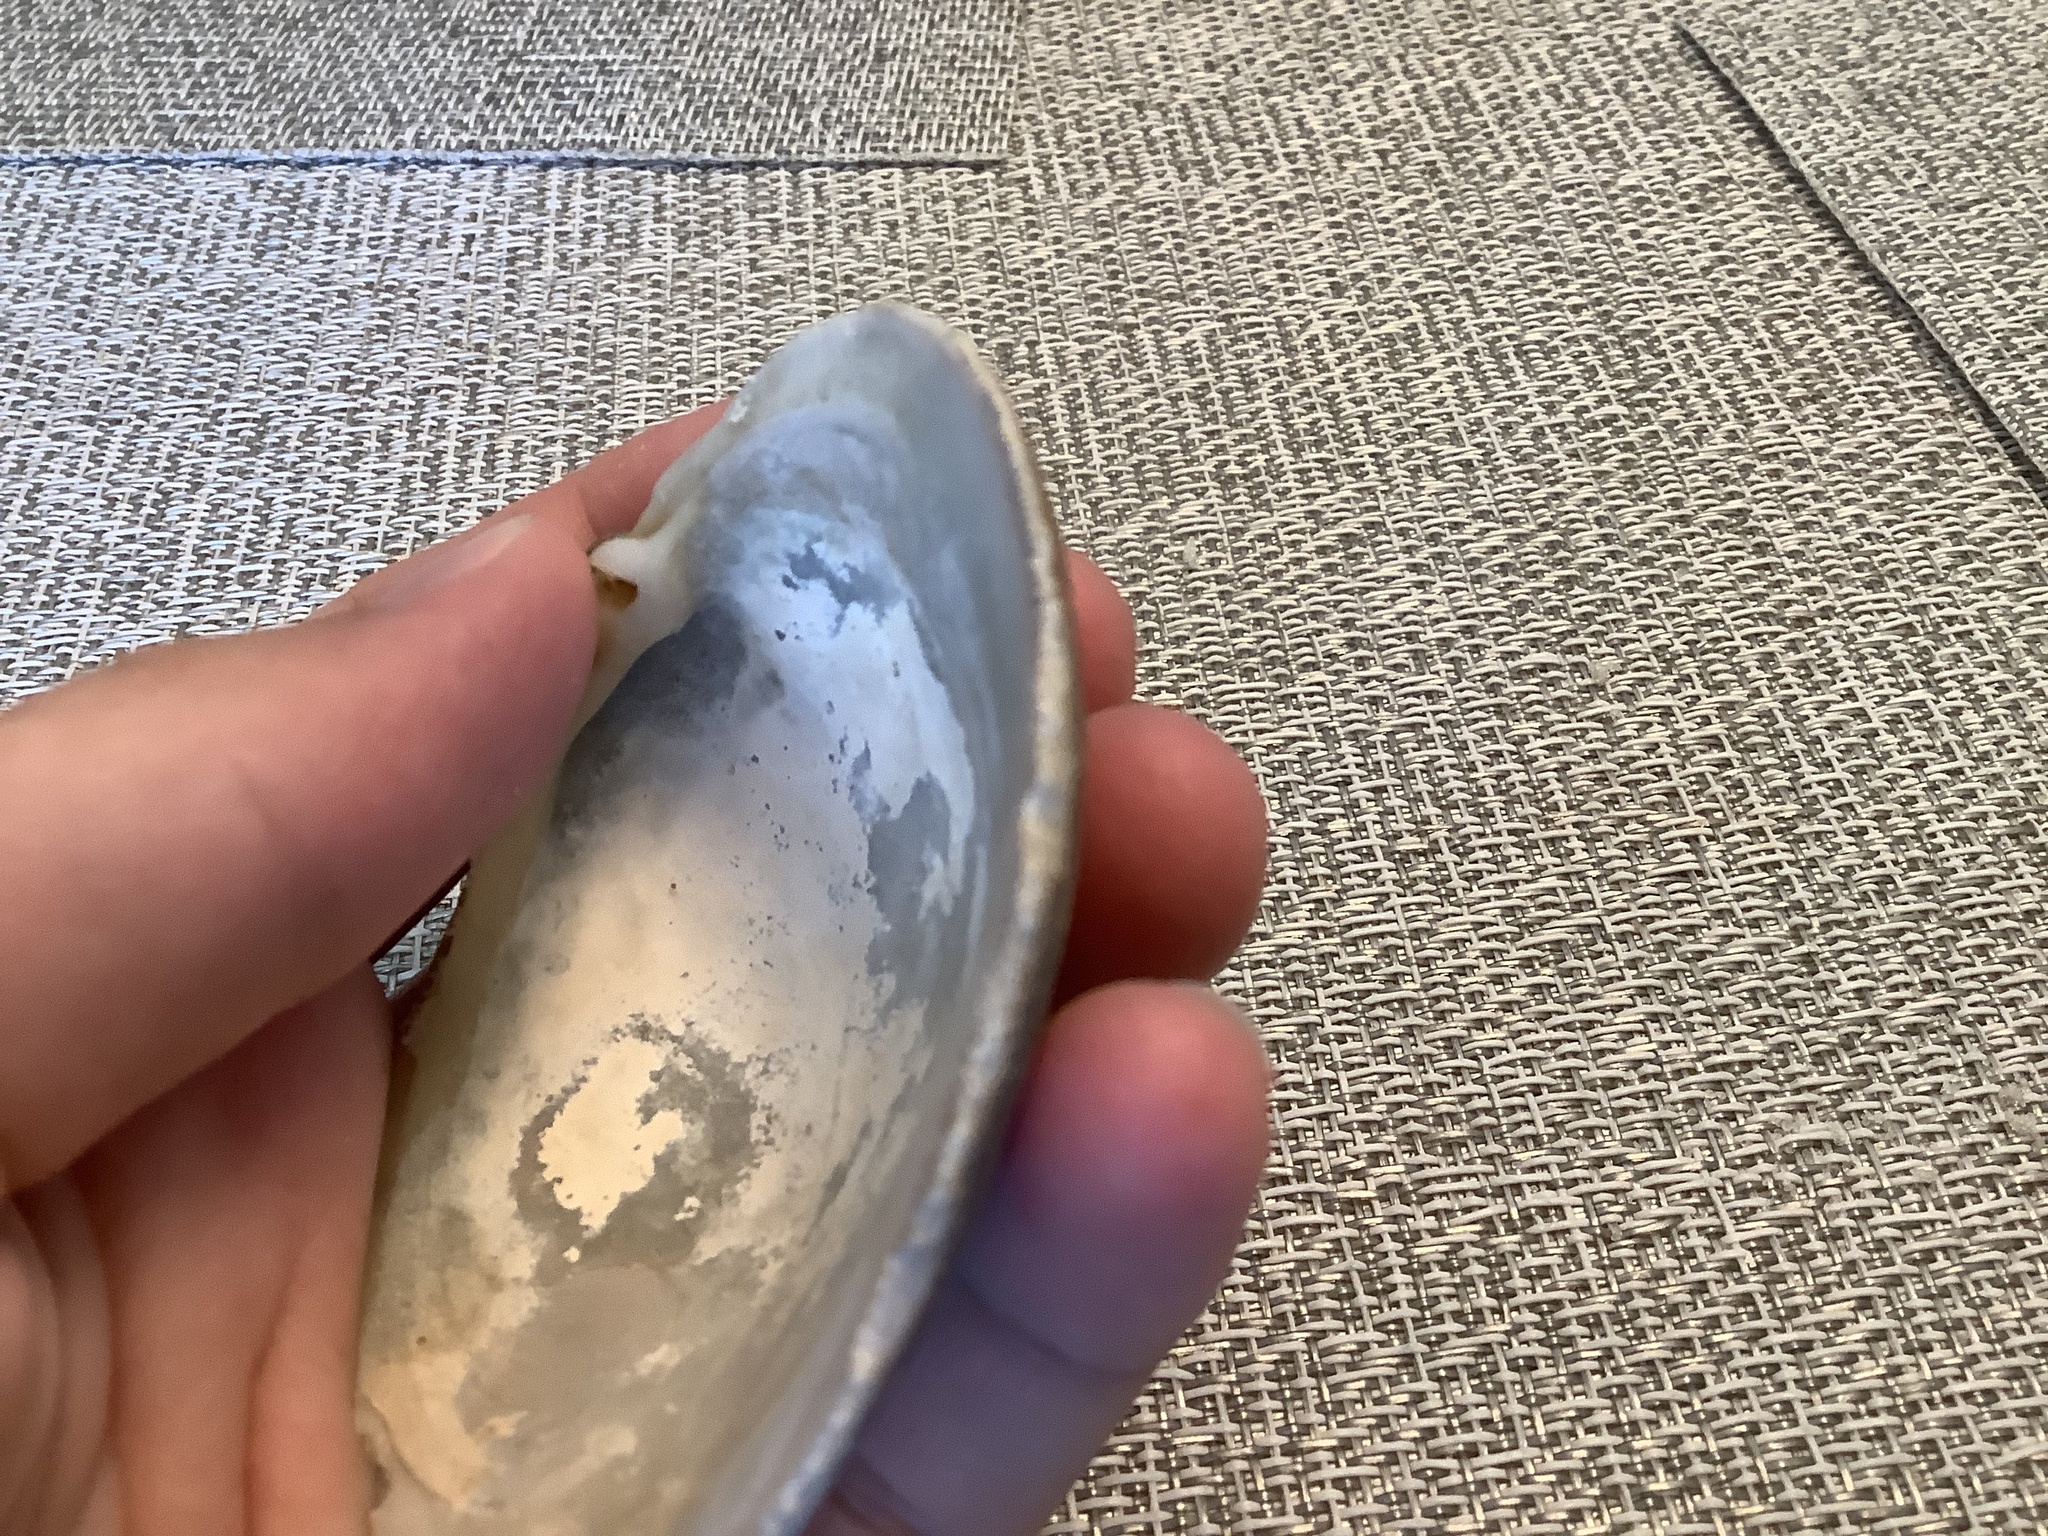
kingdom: Animalia
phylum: Mollusca
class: Bivalvia
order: Venerida
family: Veneridae
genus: Mercenaria
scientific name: Mercenaria campechiensis
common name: Südliche quahog-muschel
